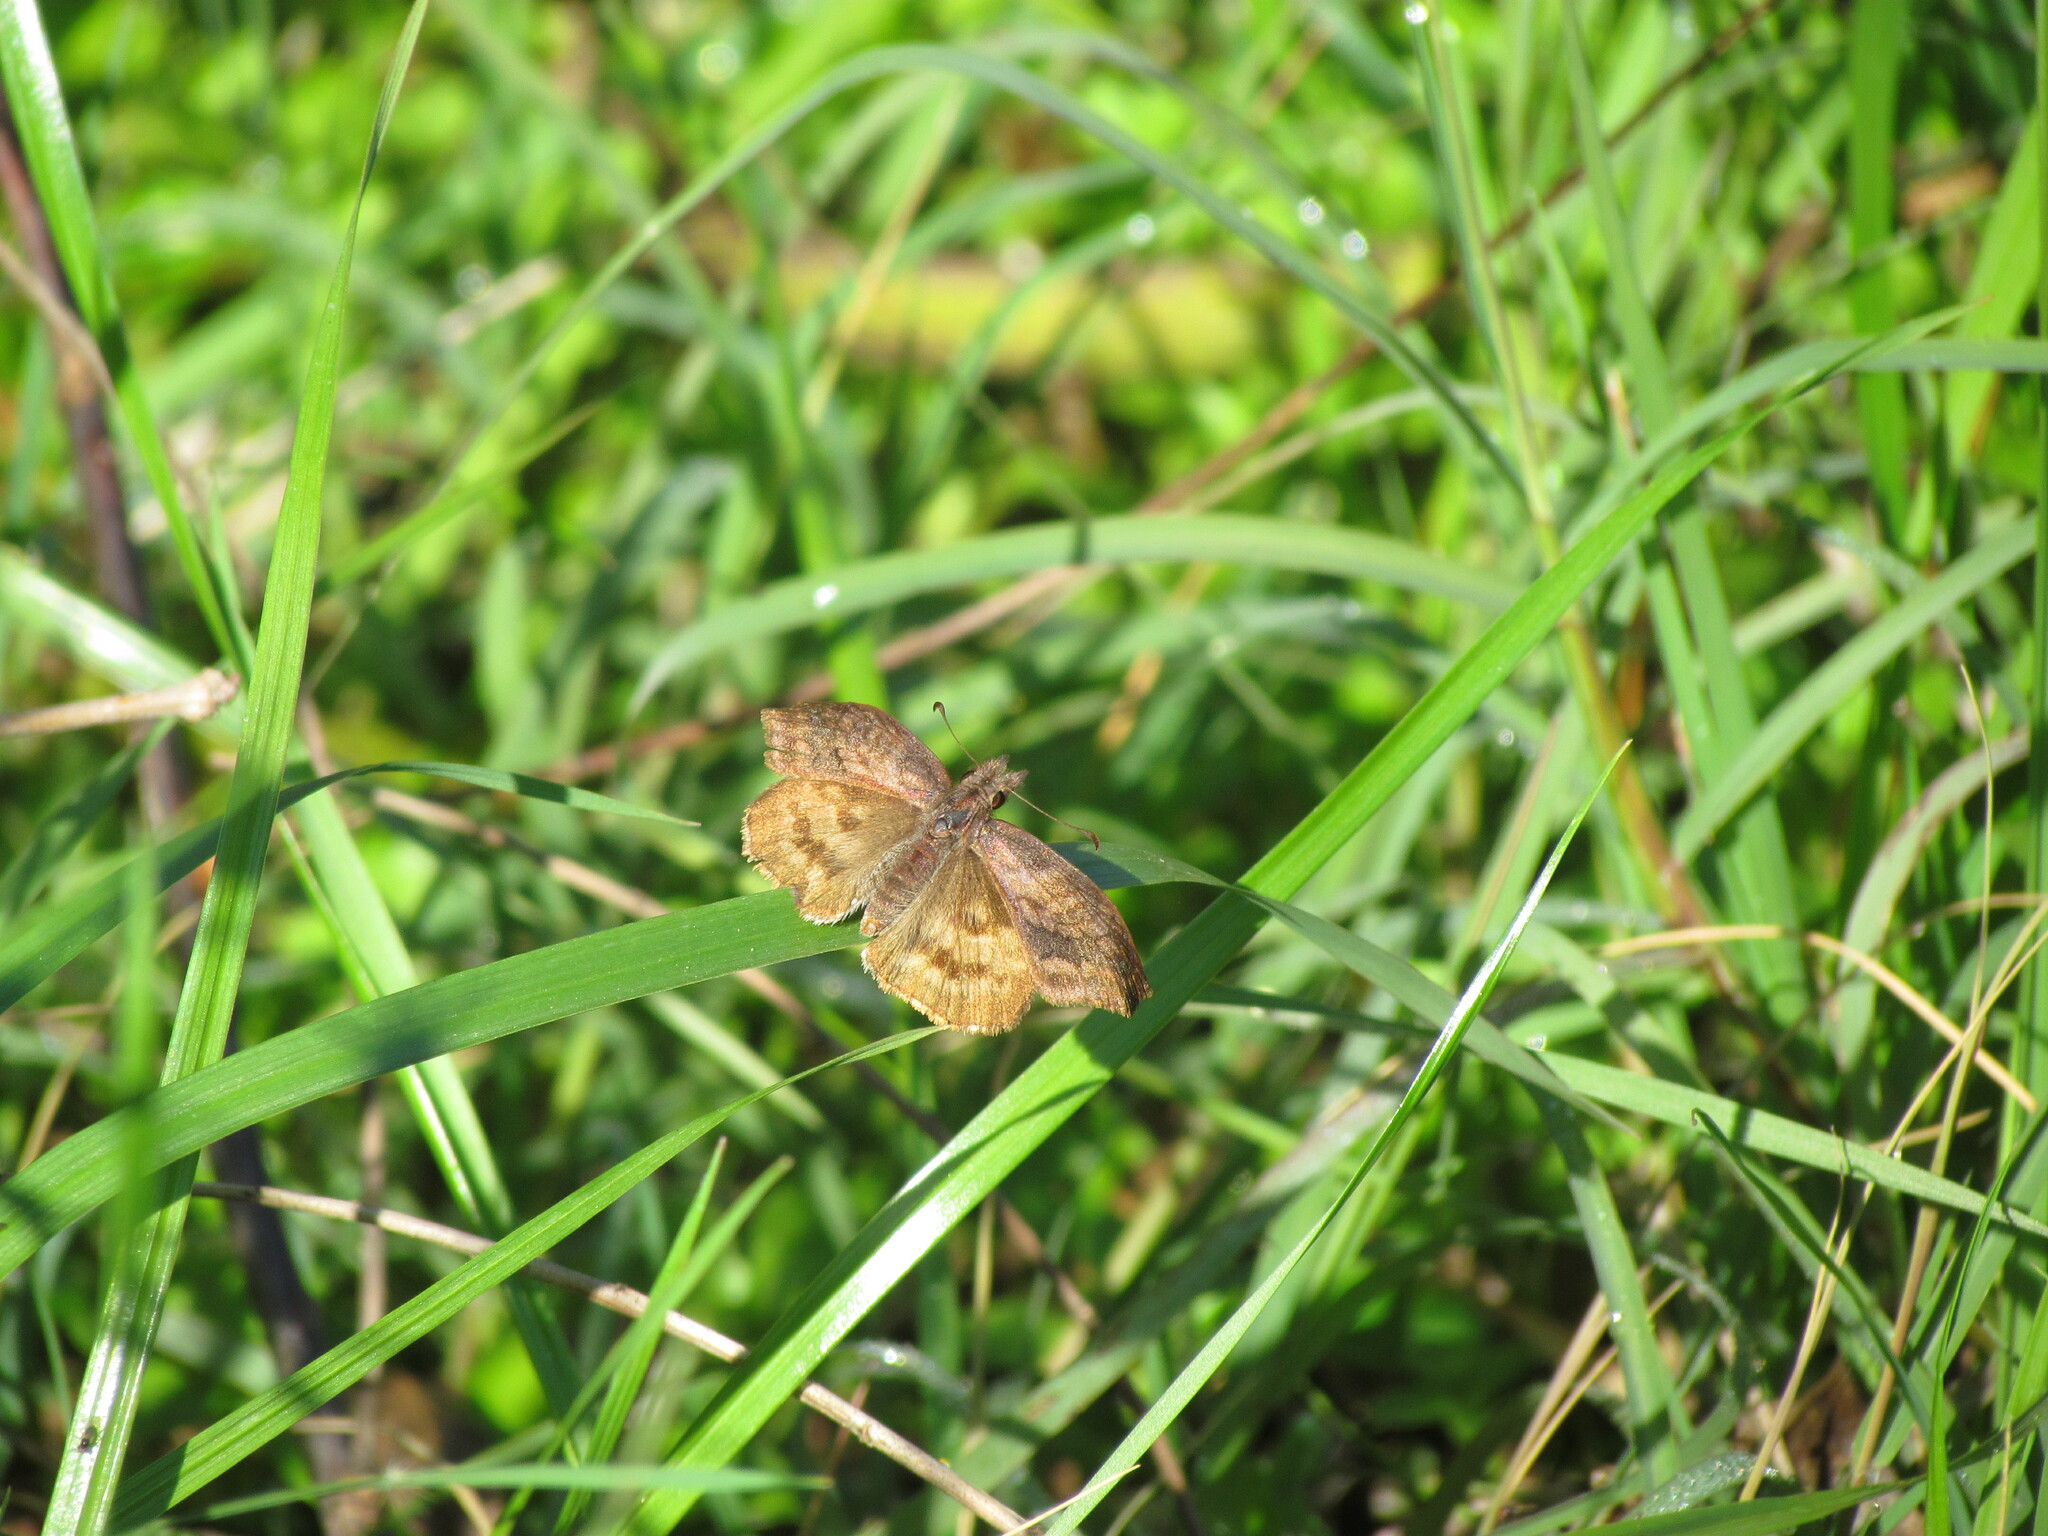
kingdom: Animalia
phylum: Arthropoda
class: Insecta
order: Lepidoptera
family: Hesperiidae
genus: Theagenes
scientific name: Theagenes dichrous
